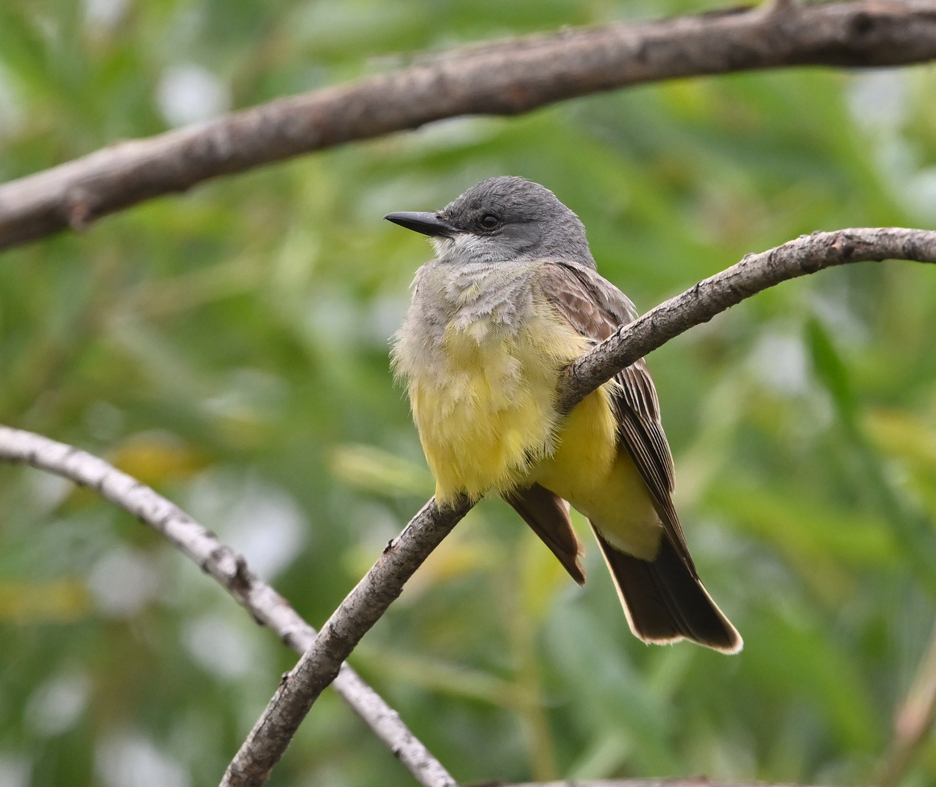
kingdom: Animalia
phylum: Chordata
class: Aves
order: Passeriformes
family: Tyrannidae
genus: Tyrannus
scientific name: Tyrannus vociferans
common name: Cassin's kingbird
